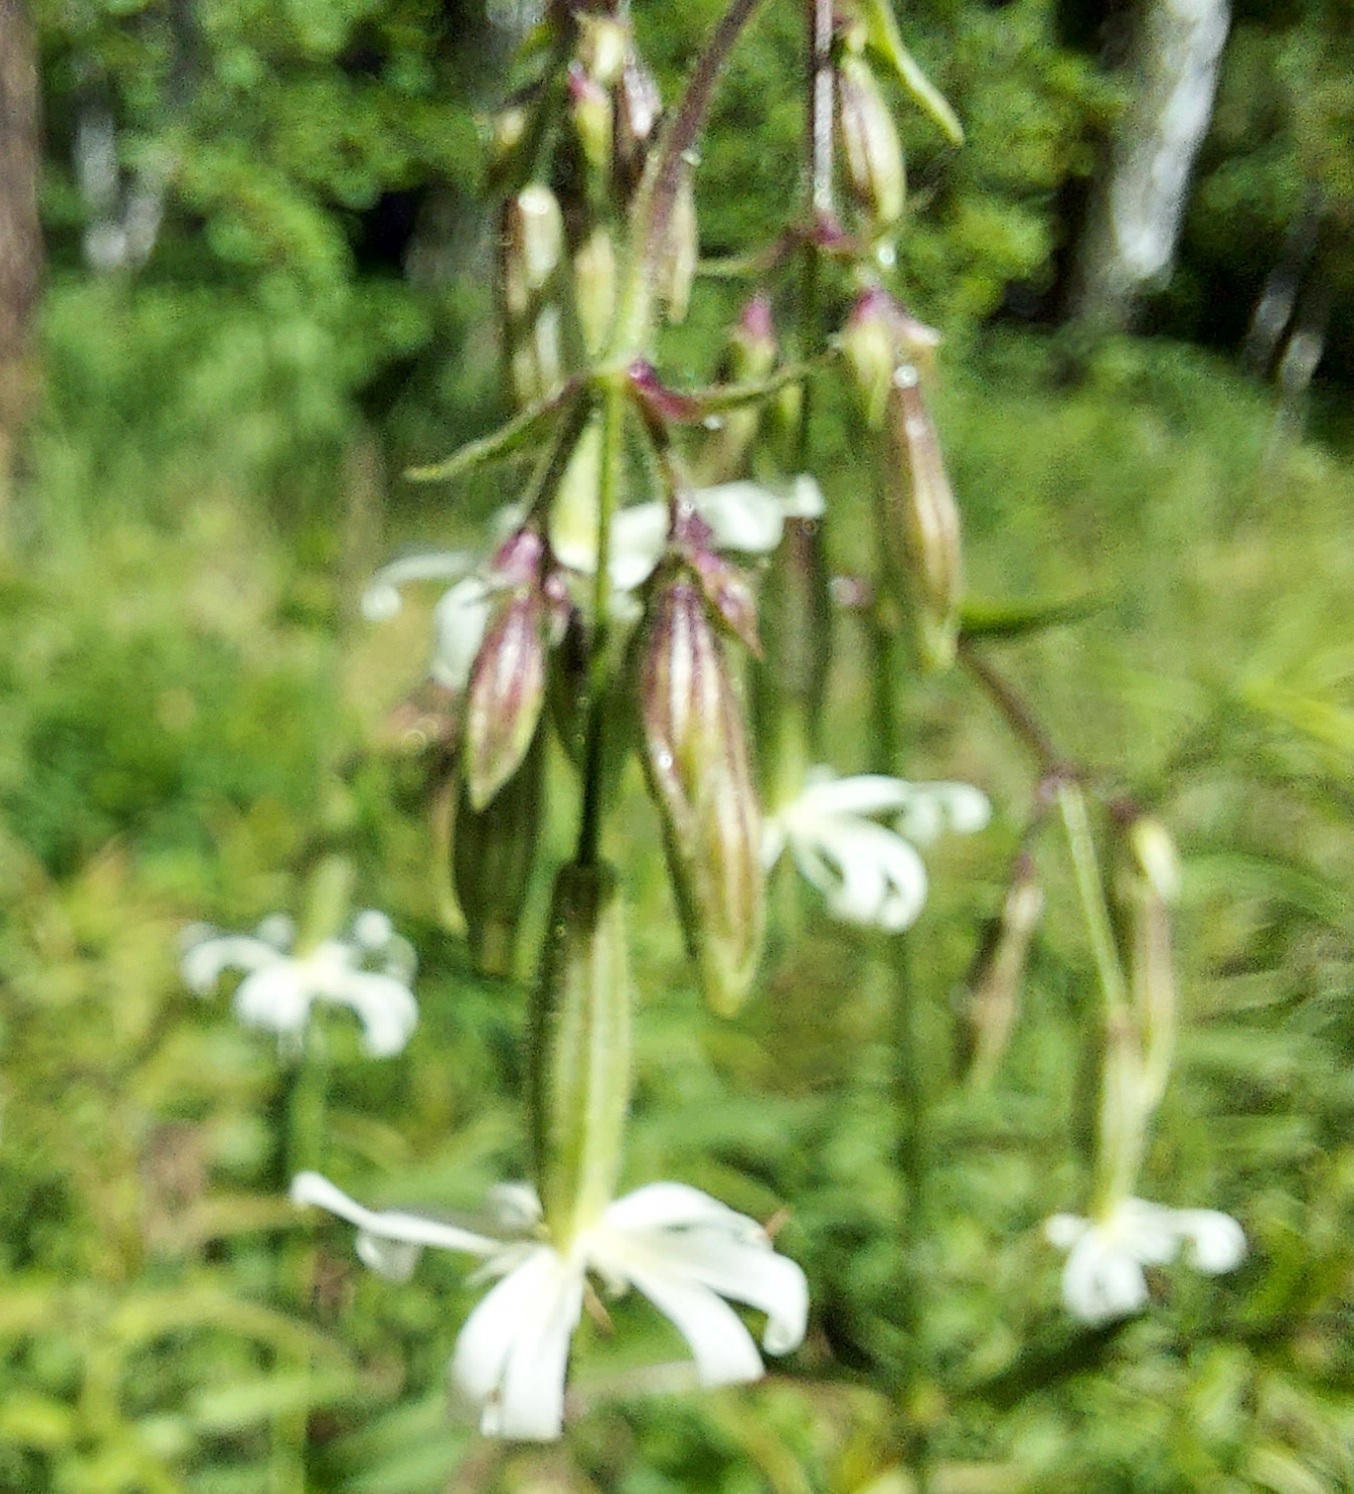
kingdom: Plantae
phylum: Tracheophyta
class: Magnoliopsida
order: Caryophyllales
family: Caryophyllaceae
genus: Silene
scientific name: Silene nutans
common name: Nottingham catchfly
